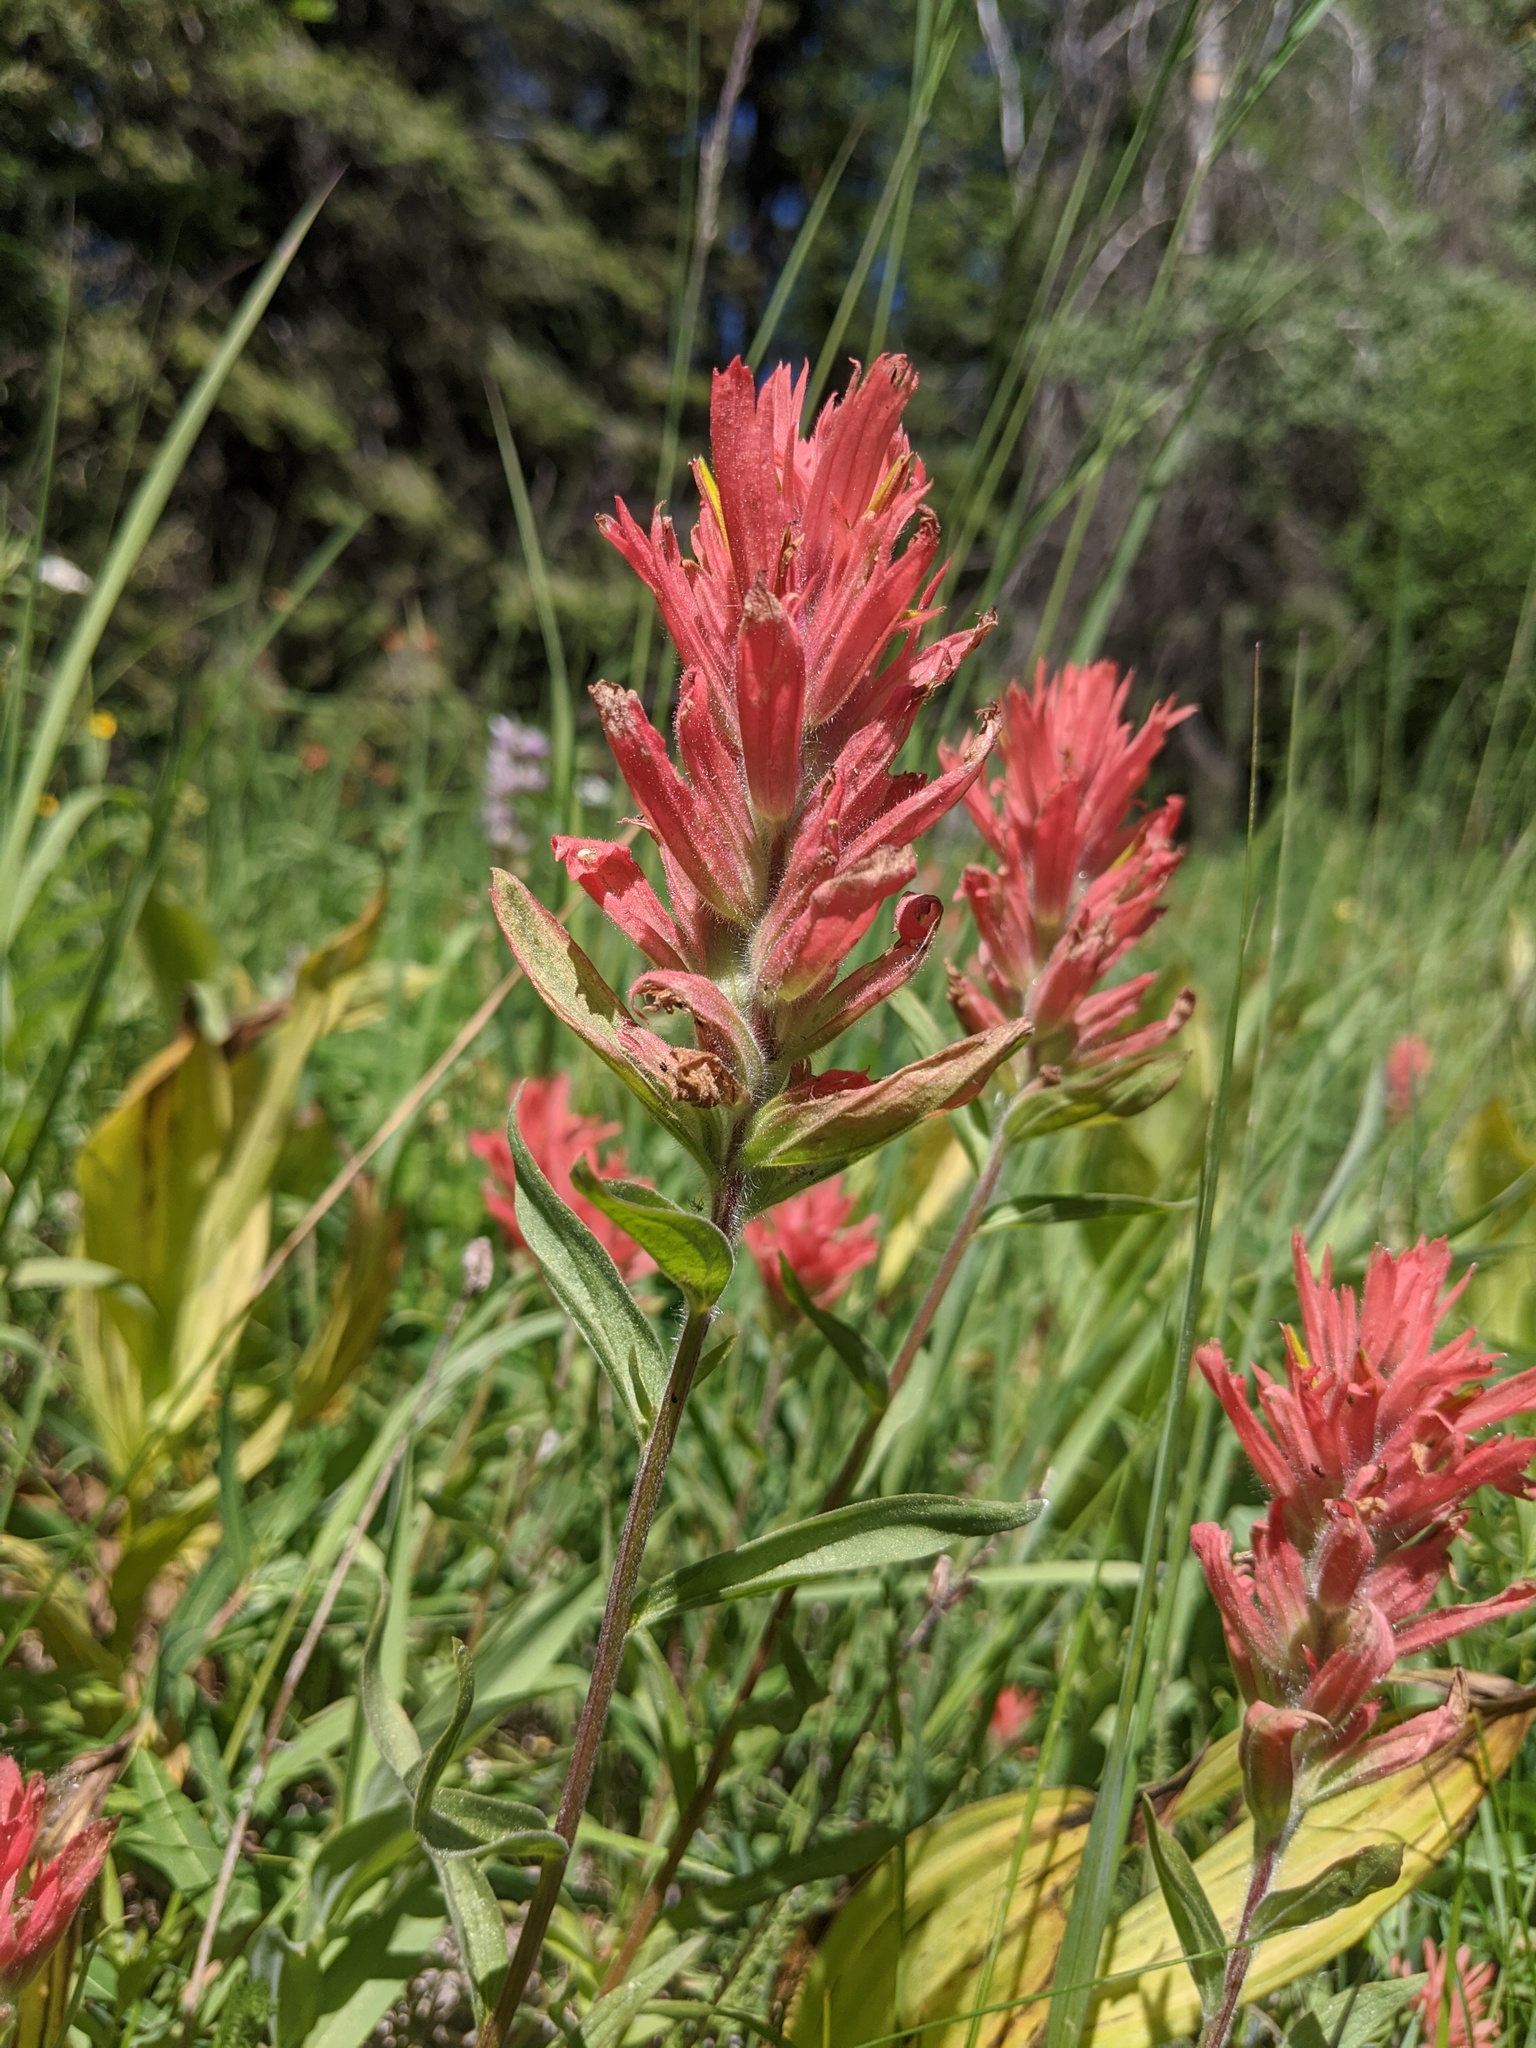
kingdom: Plantae
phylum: Tracheophyta
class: Magnoliopsida
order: Lamiales
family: Orobanchaceae
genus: Castilleja
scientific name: Castilleja miniata
